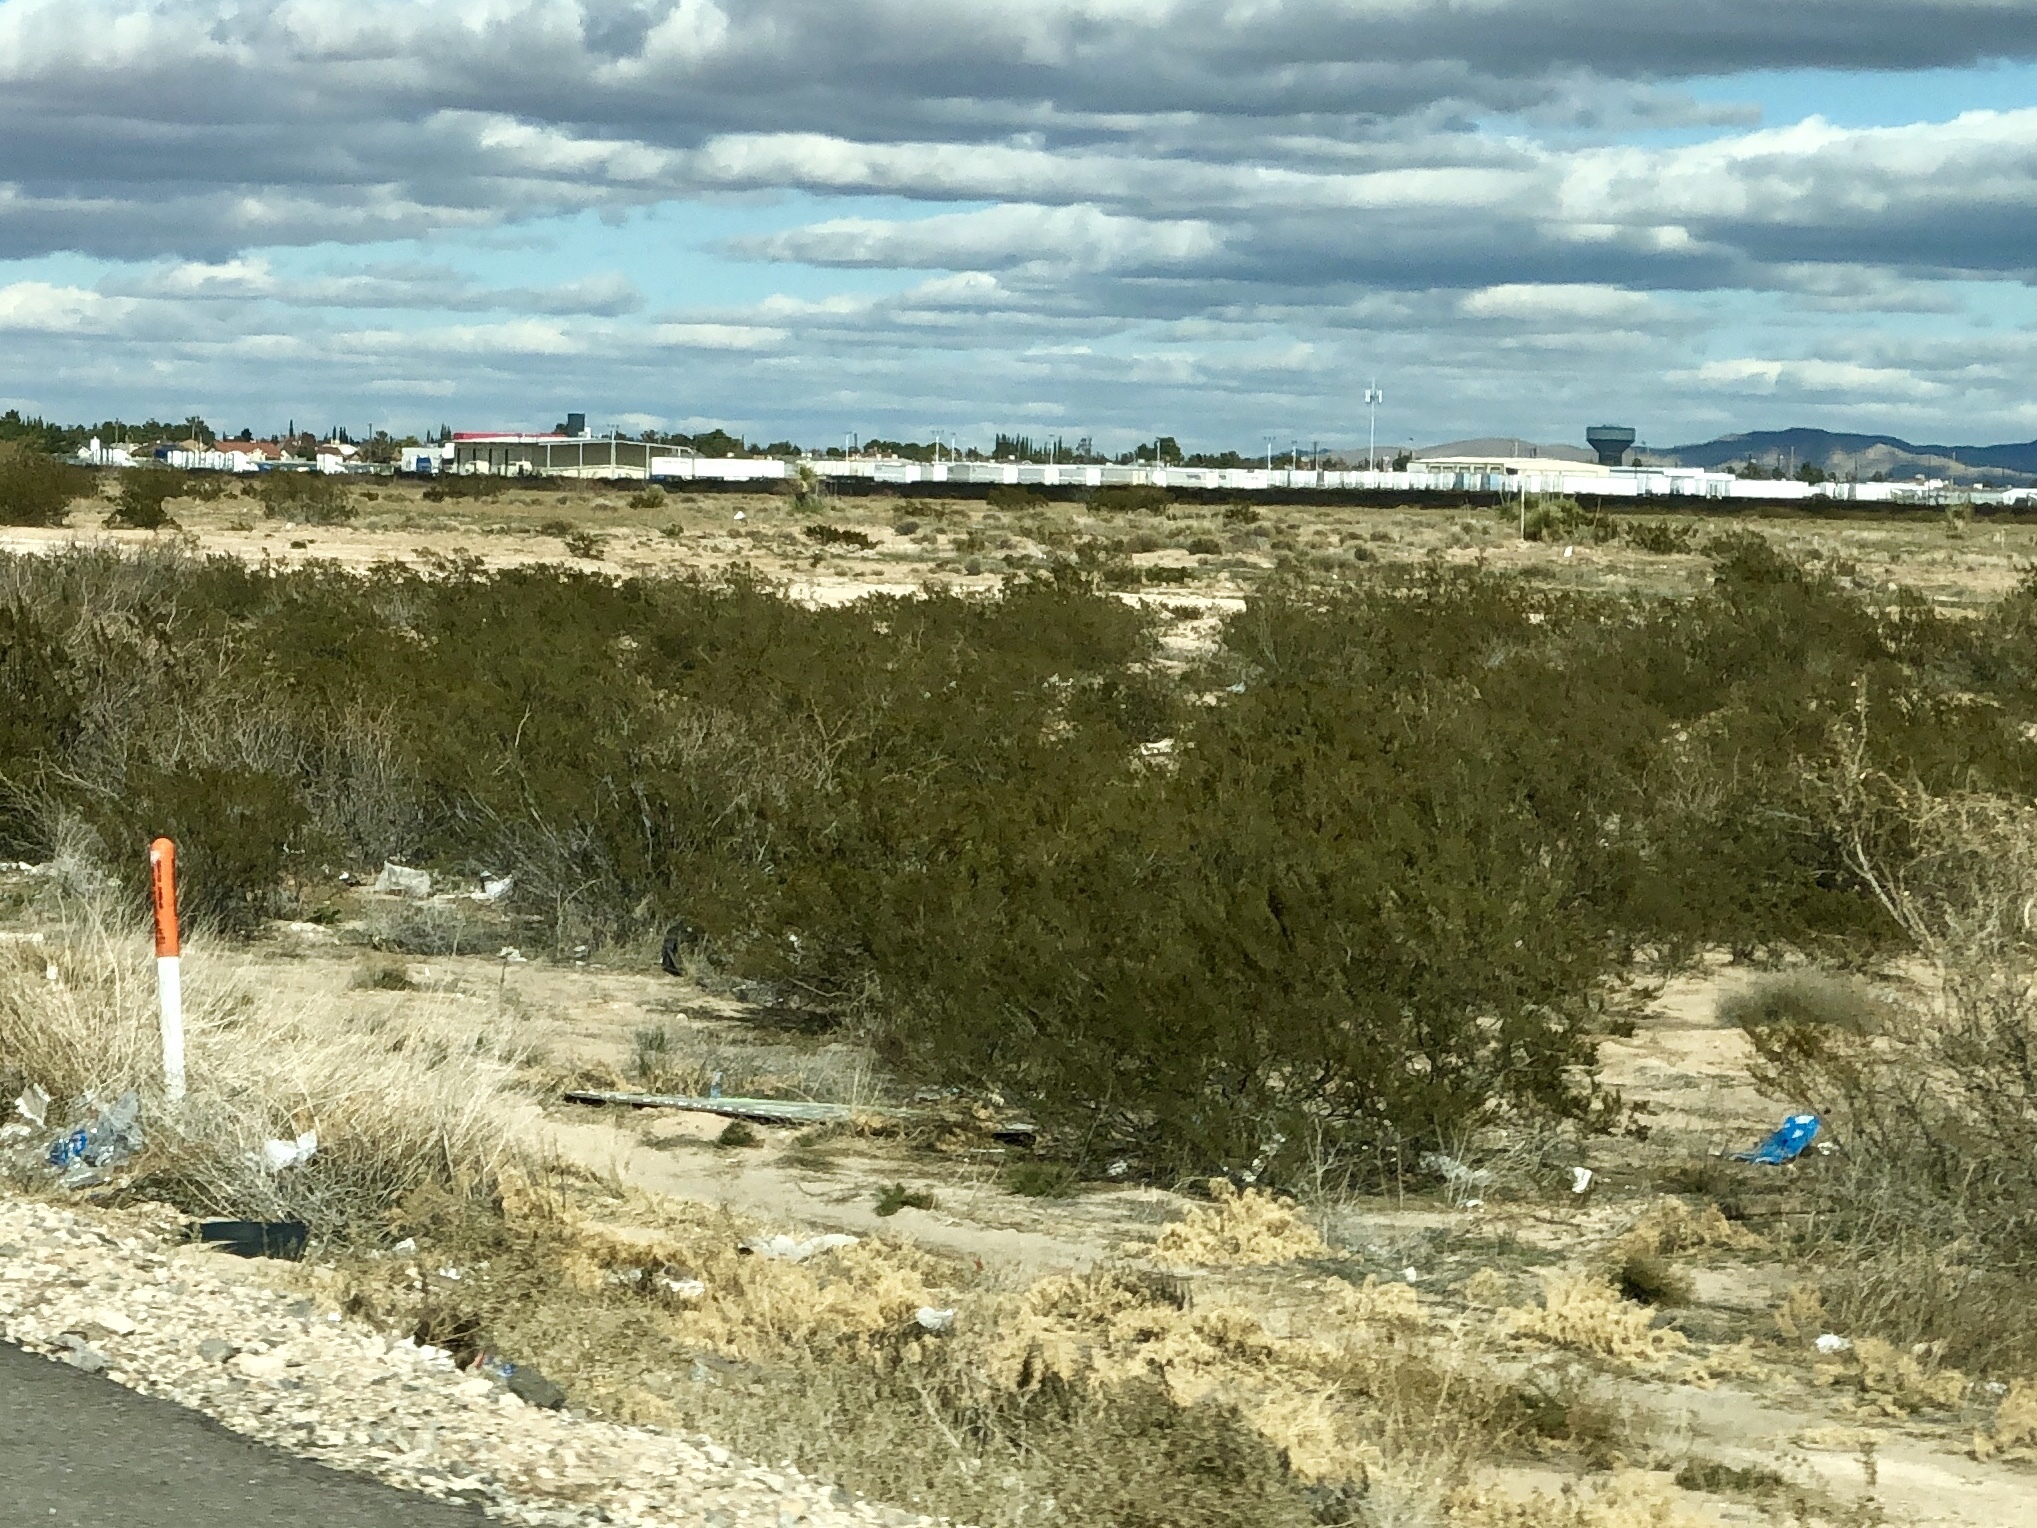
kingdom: Plantae
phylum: Tracheophyta
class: Magnoliopsida
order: Zygophyllales
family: Zygophyllaceae
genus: Larrea
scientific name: Larrea tridentata
